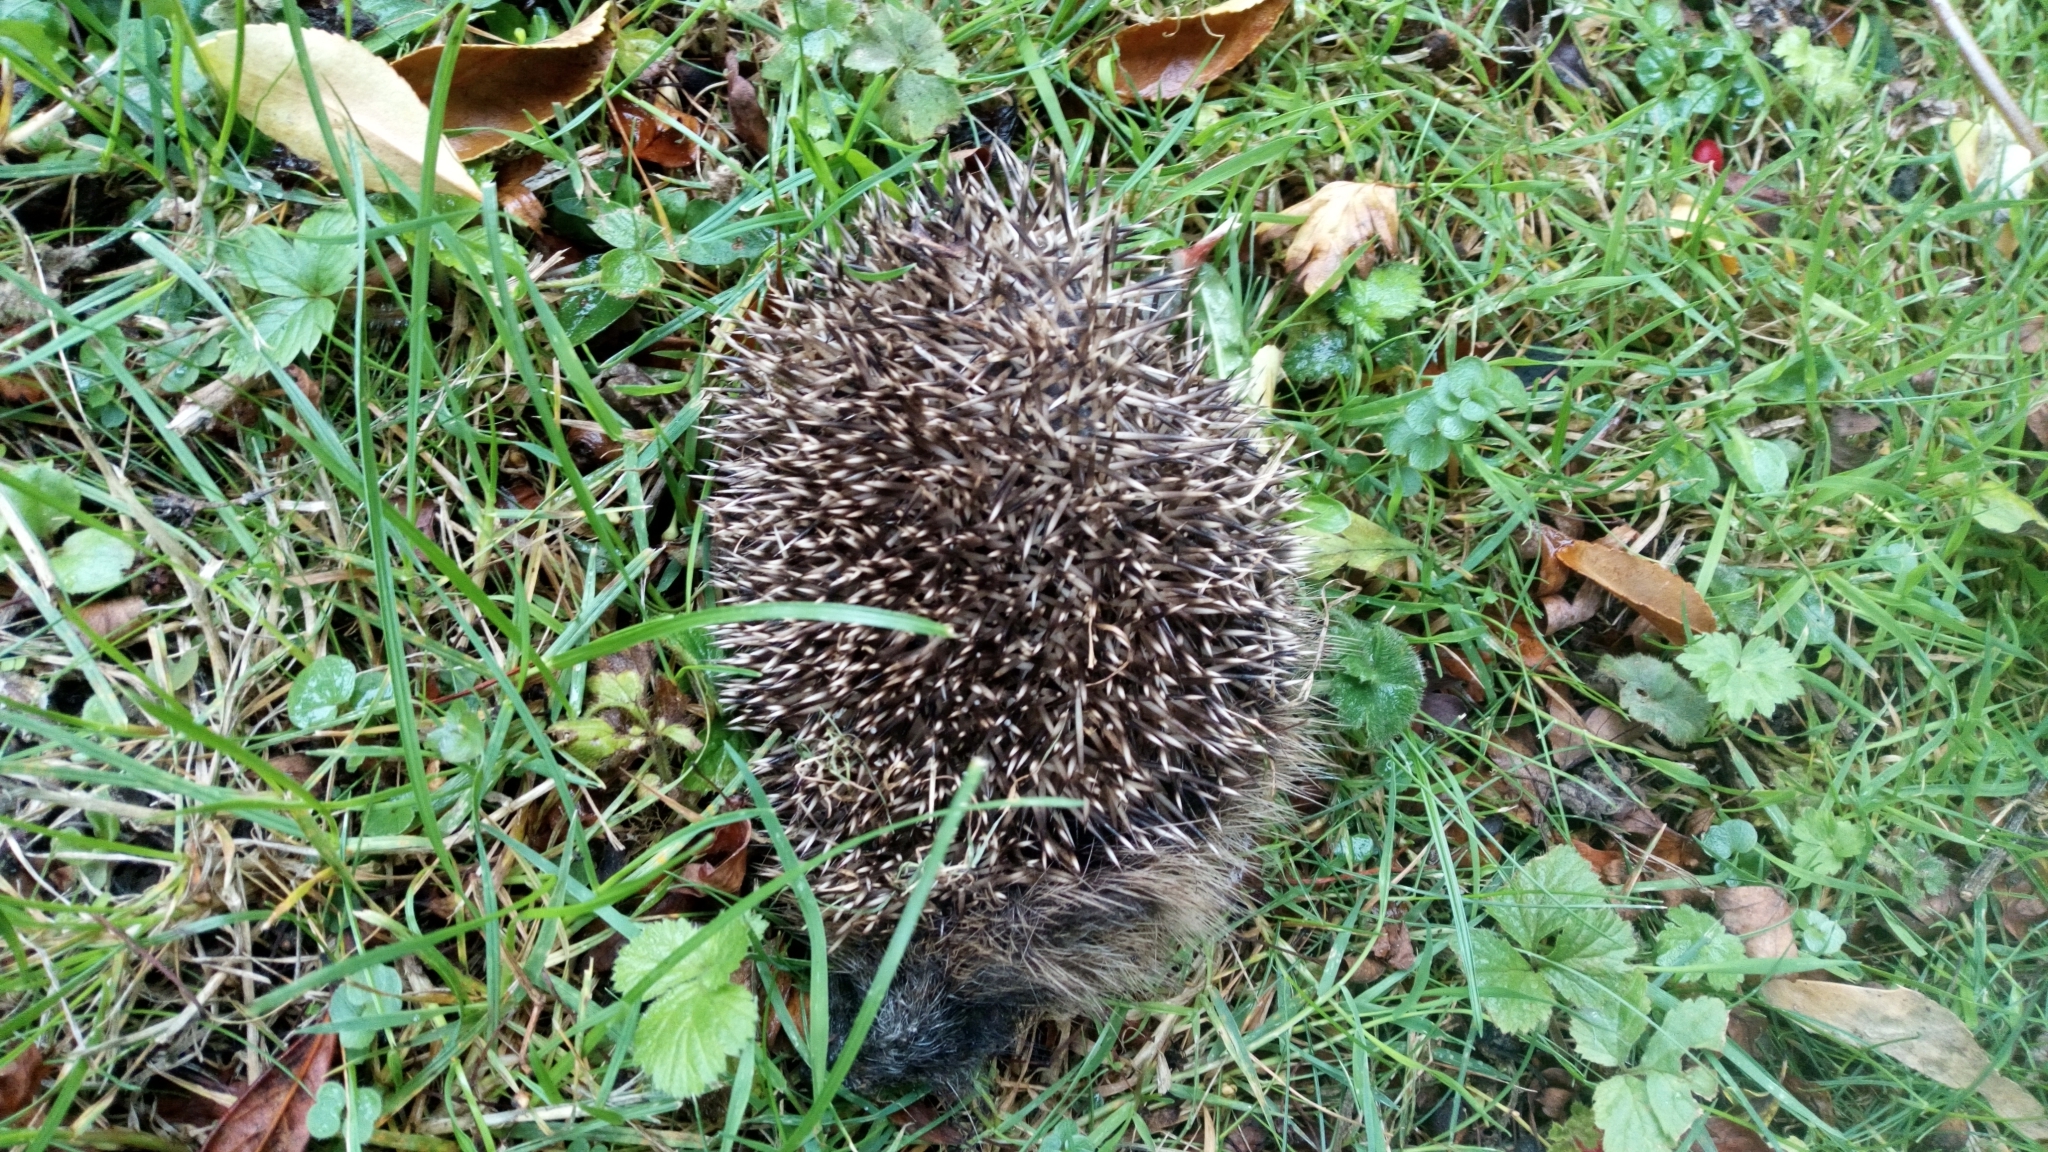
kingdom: Animalia
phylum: Chordata
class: Mammalia
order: Erinaceomorpha
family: Erinaceidae
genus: Erinaceus
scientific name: Erinaceus europaeus
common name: West european hedgehog
